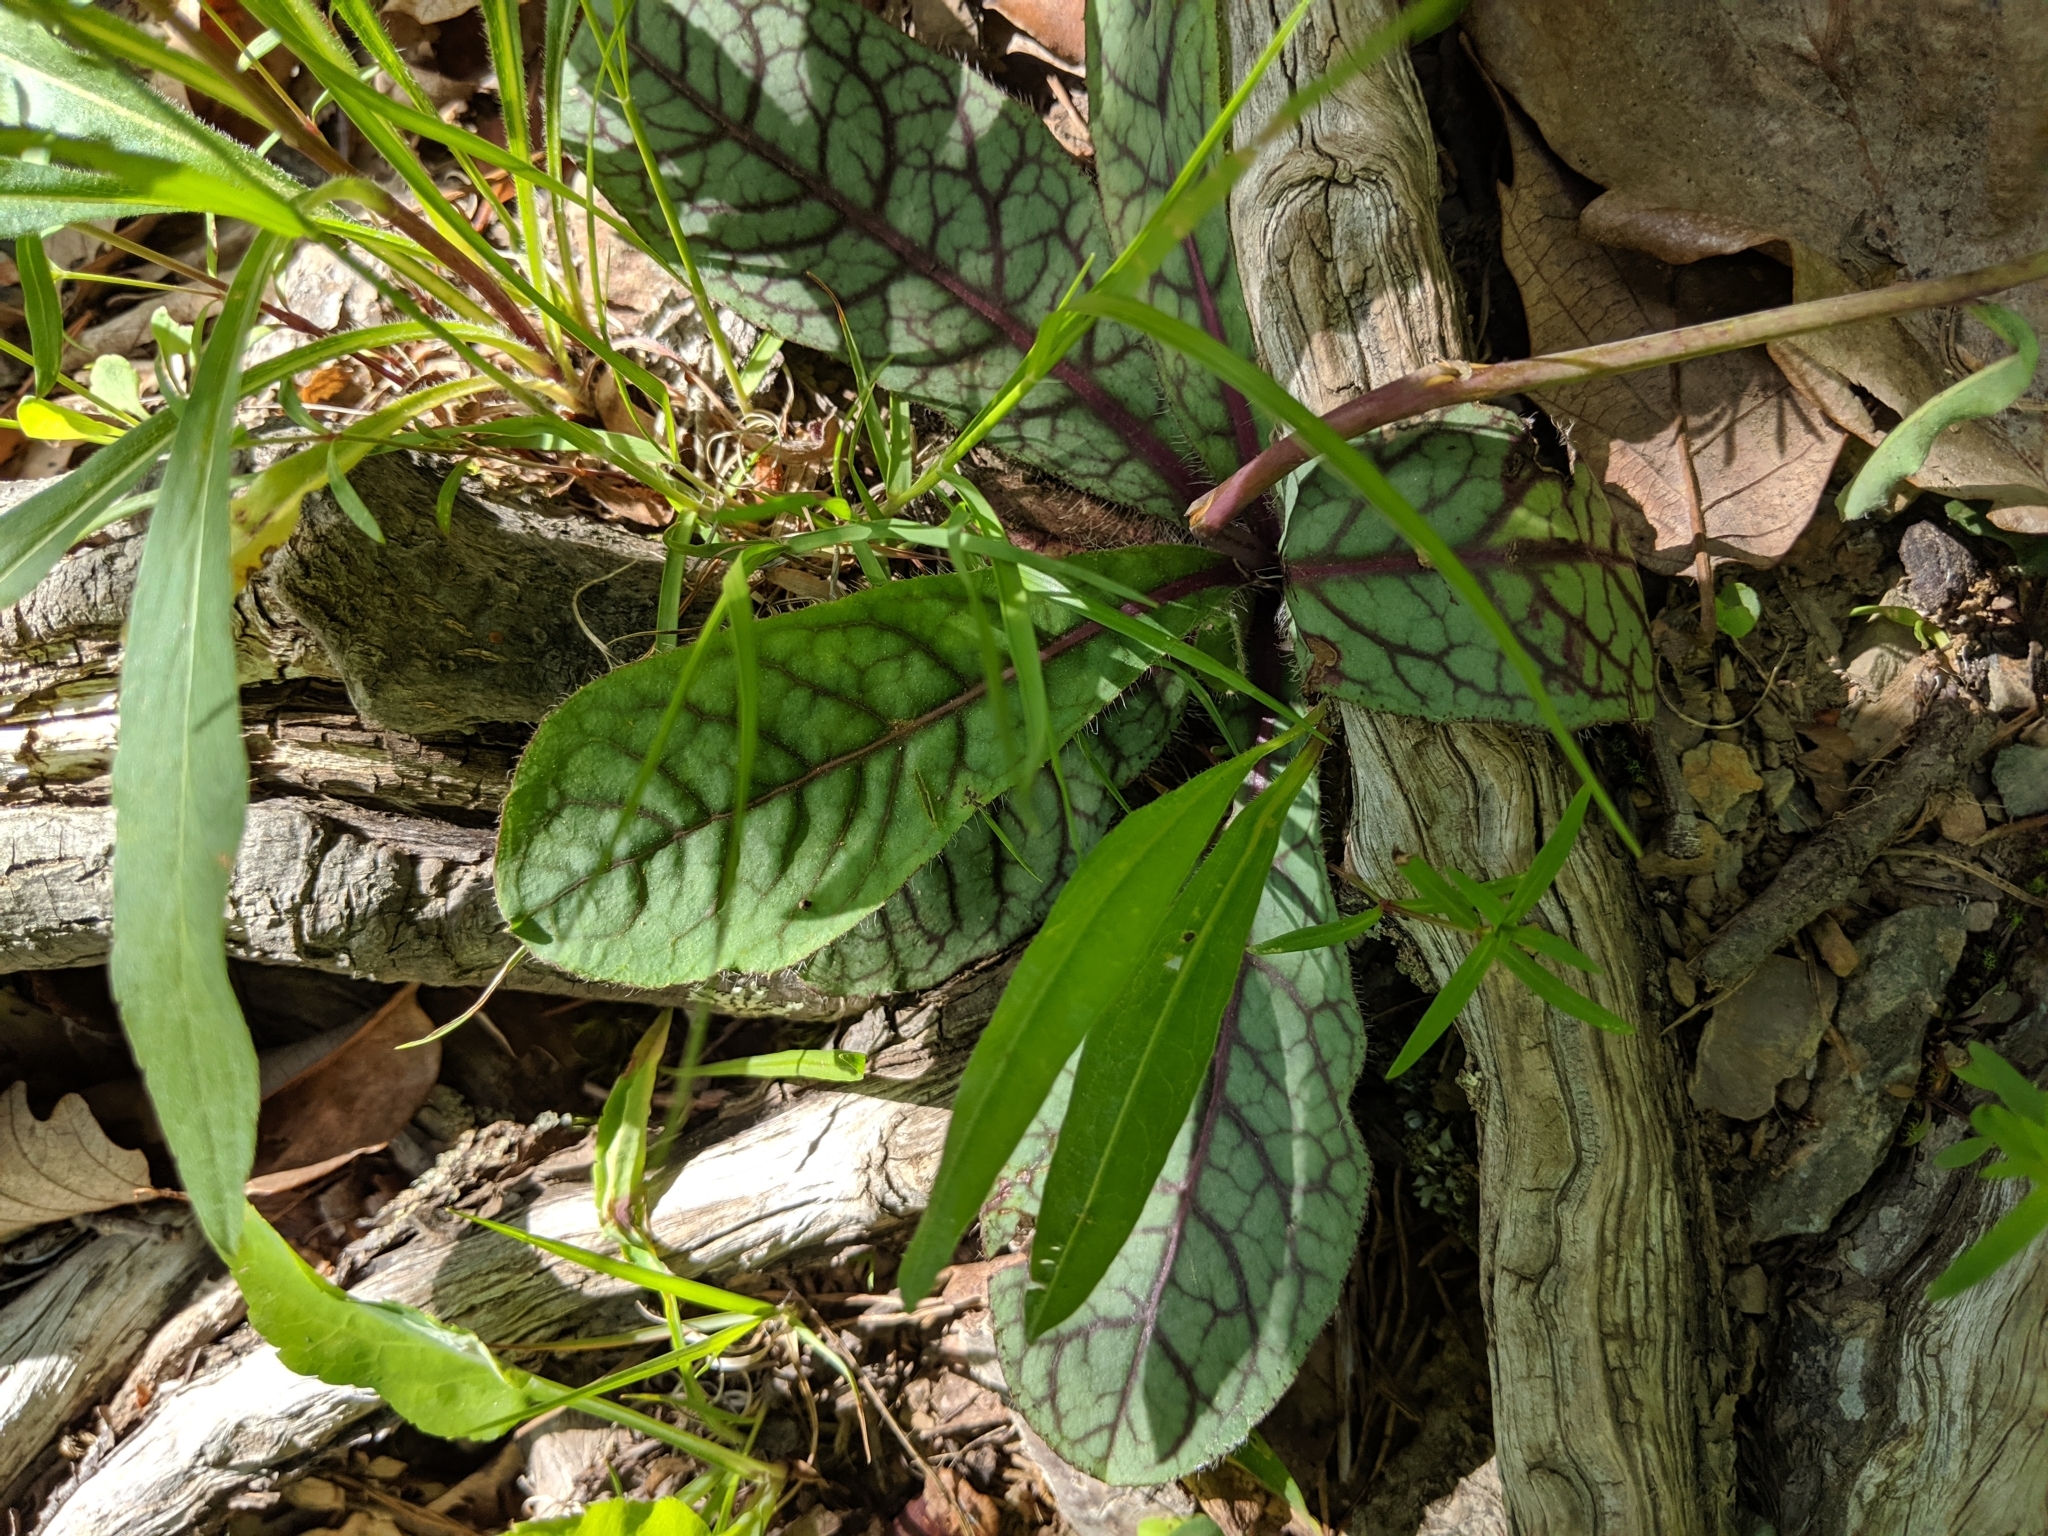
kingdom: Plantae
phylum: Tracheophyta
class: Magnoliopsida
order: Asterales
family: Asteraceae
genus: Hieracium
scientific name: Hieracium venosum
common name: Rattlesnake hawkweed
